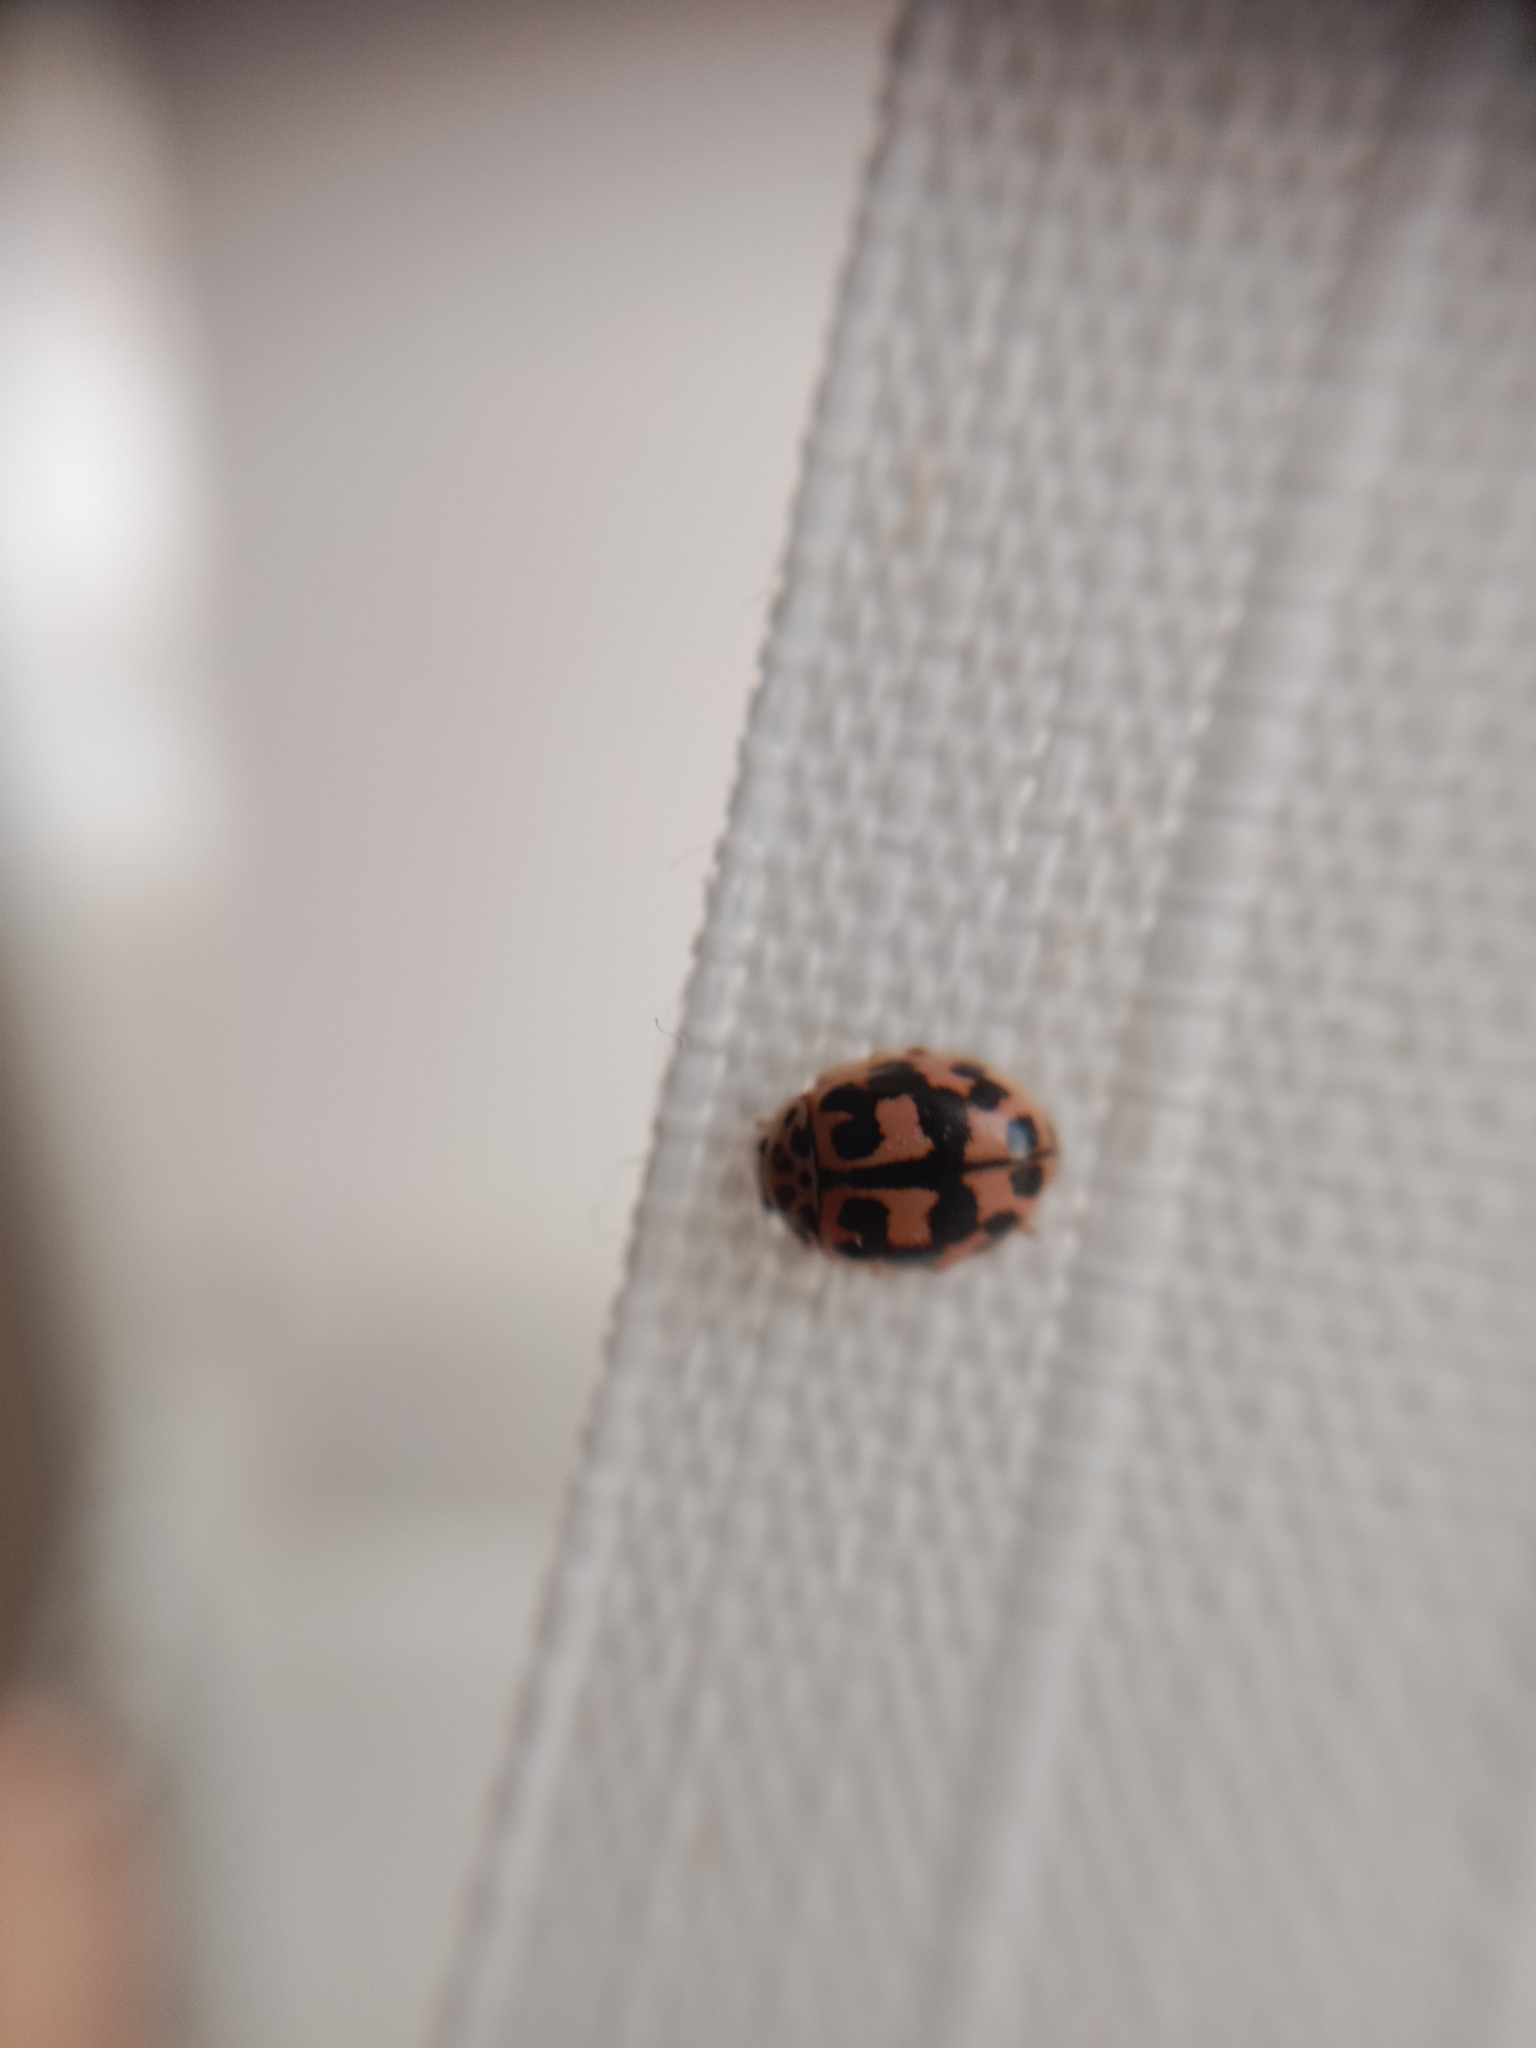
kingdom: Animalia
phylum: Arthropoda
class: Insecta
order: Coleoptera
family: Coccinellidae
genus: Oenopia
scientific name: Oenopia conglobata
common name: Ladybird beetle
